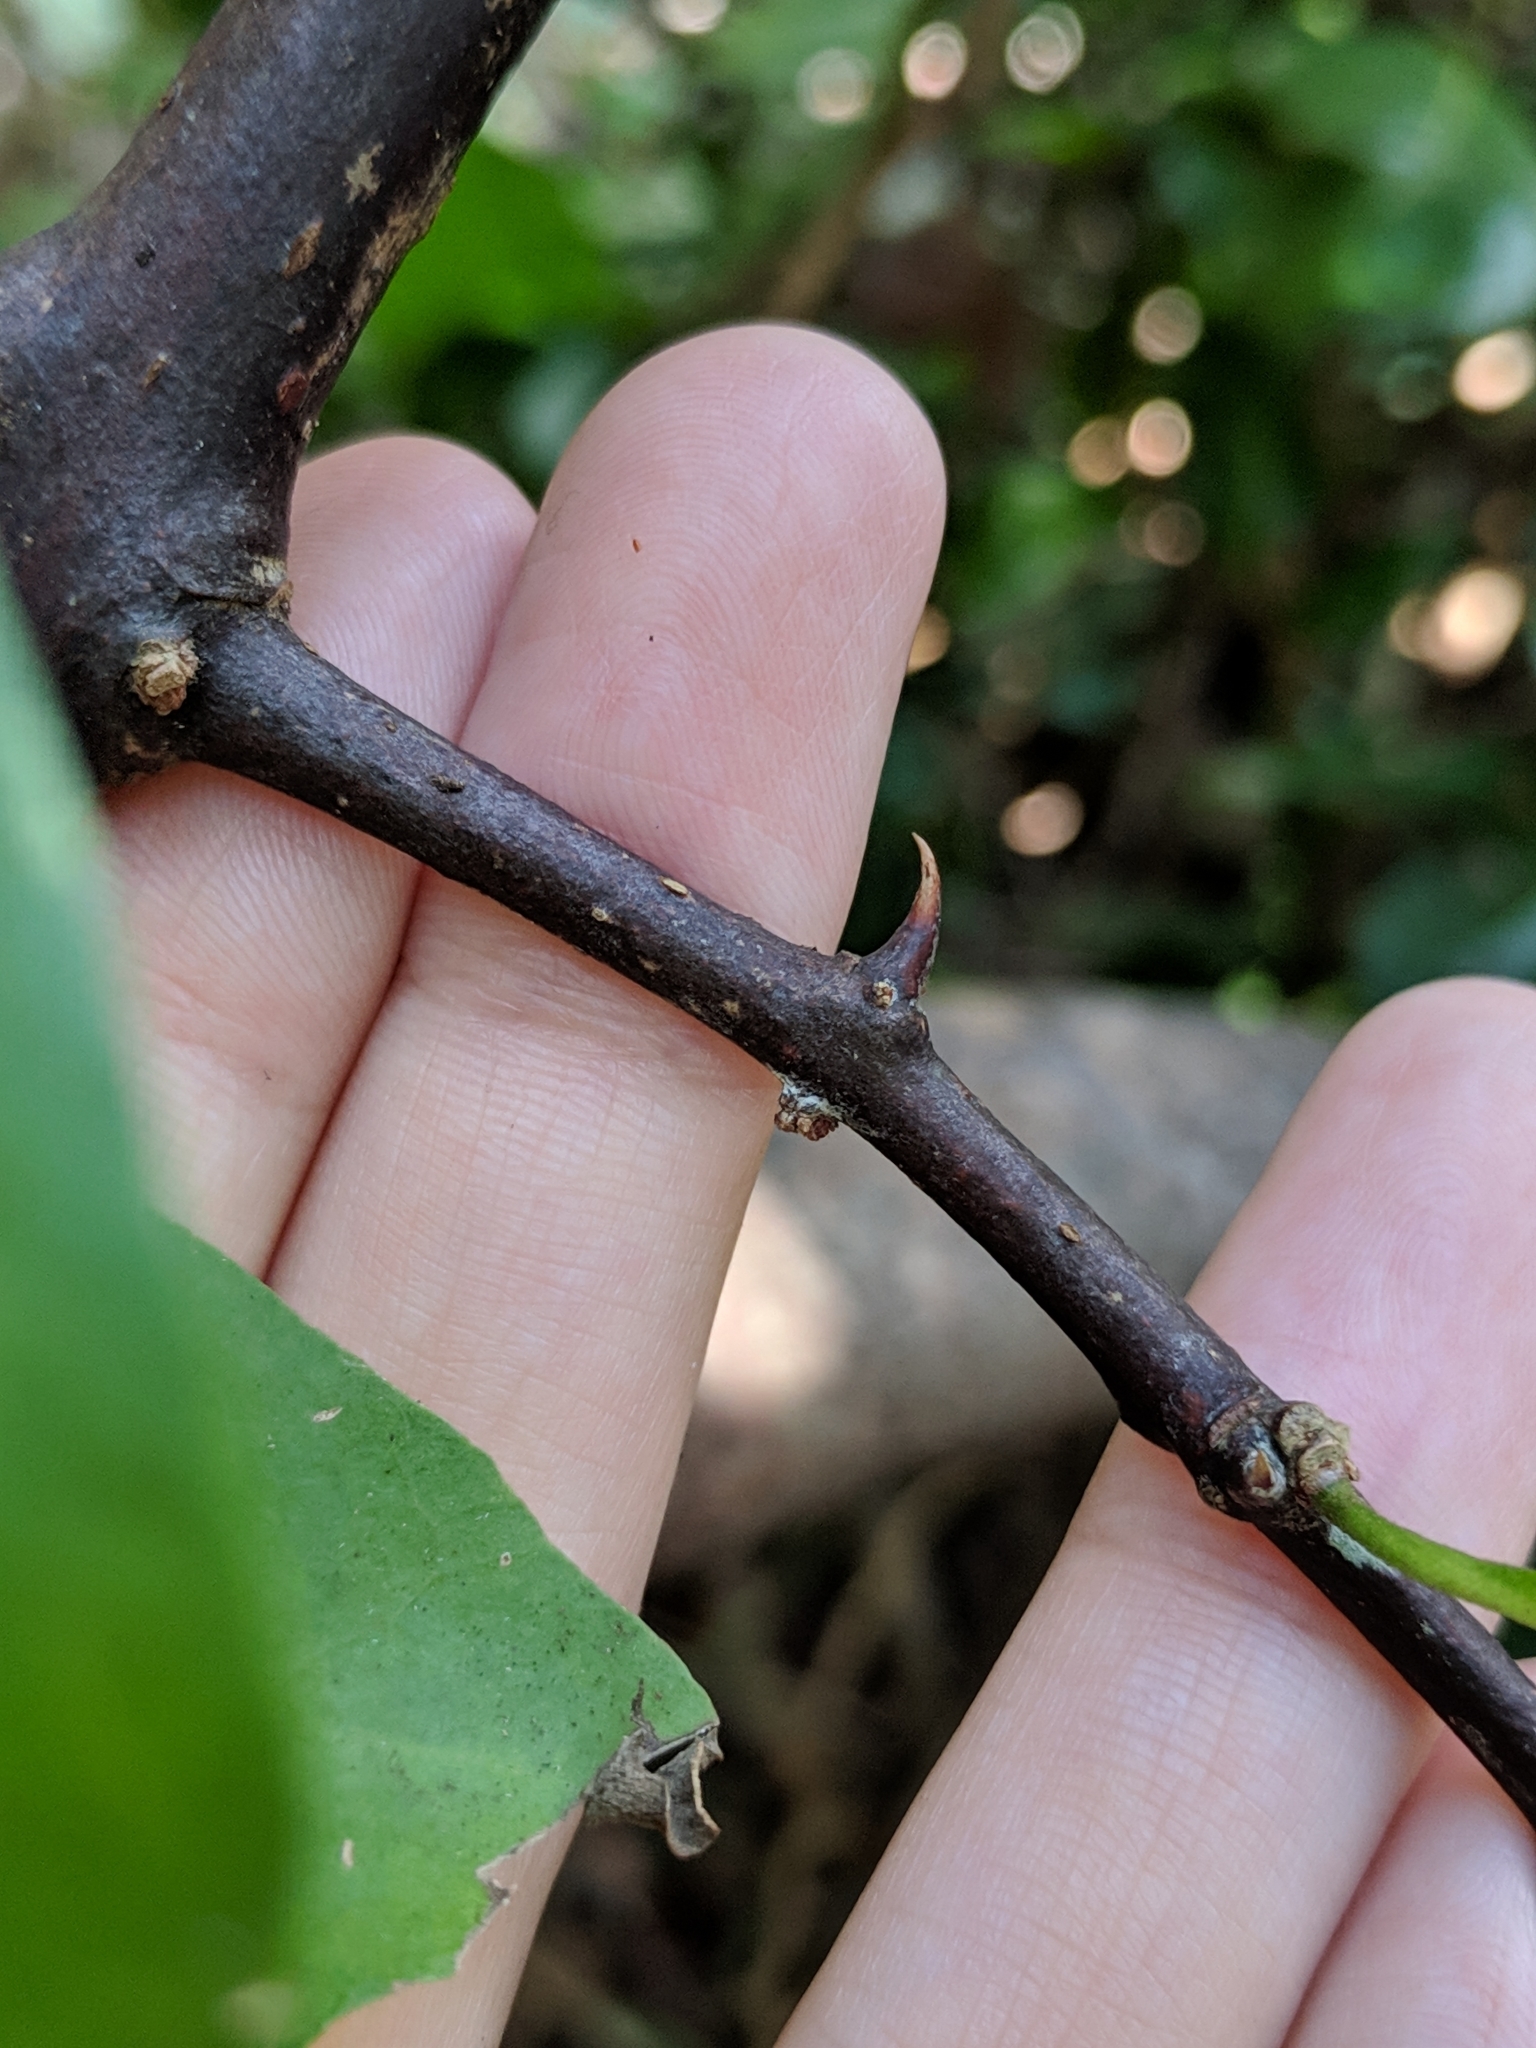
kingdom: Plantae
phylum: Tracheophyta
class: Magnoliopsida
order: Caryophyllales
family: Nyctaginaceae
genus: Pisonia
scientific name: Pisonia aculeata
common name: Cockspur vine
